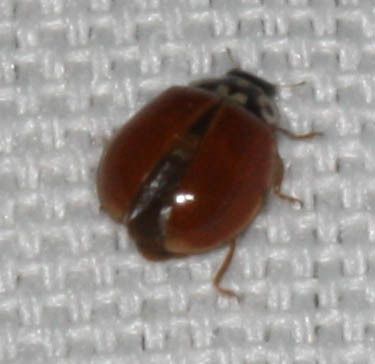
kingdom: Animalia
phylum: Arthropoda
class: Insecta
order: Coleoptera
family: Coccinellidae
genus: Cycloneda
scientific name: Cycloneda polita
